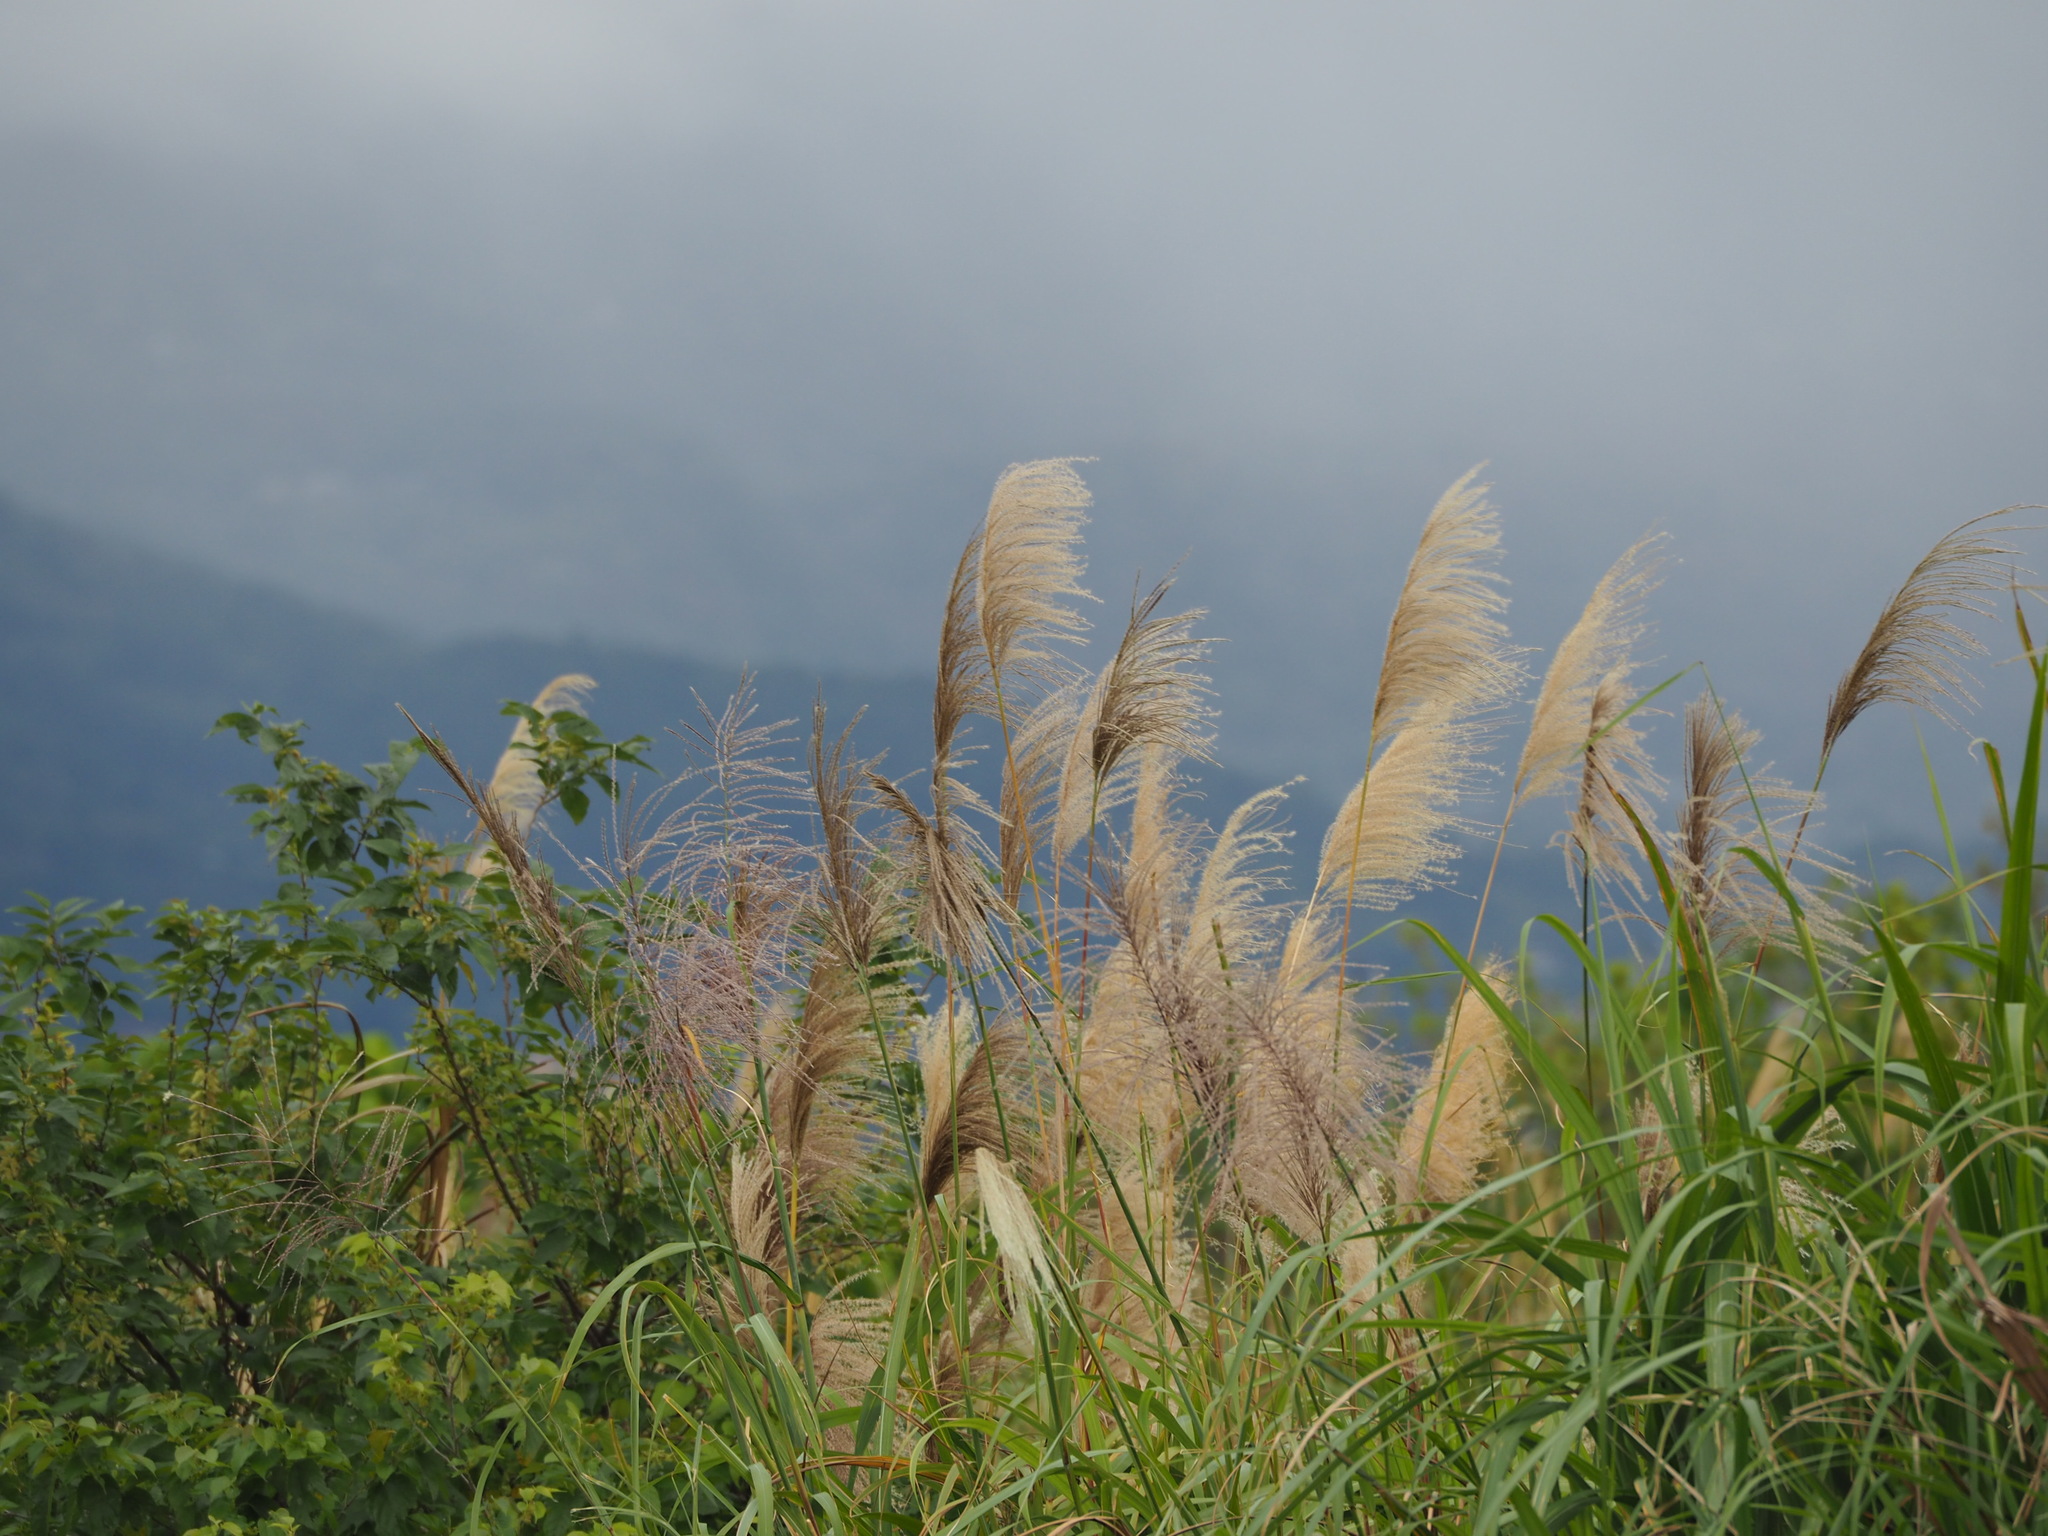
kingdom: Plantae
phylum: Tracheophyta
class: Liliopsida
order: Poales
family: Poaceae
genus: Miscanthus
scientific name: Miscanthus sinensis
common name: Chinese silvergrass
